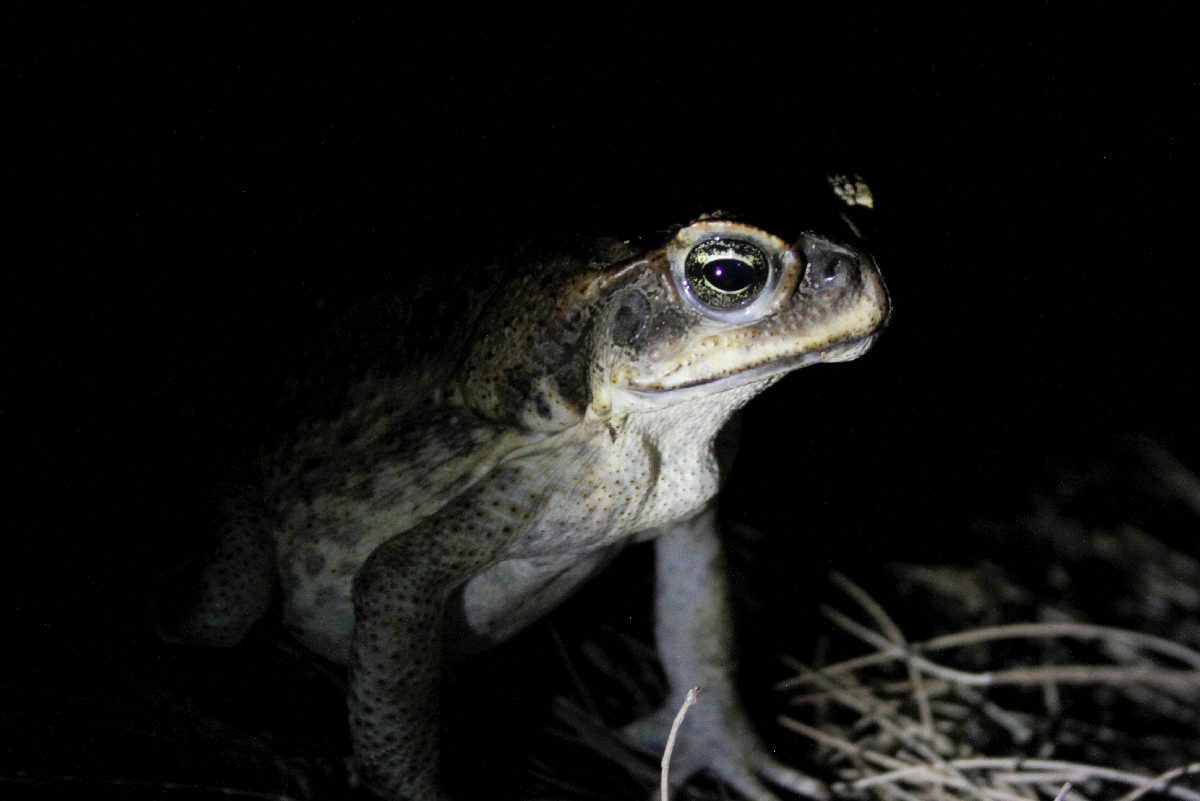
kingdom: Animalia
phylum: Chordata
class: Amphibia
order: Anura
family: Bufonidae
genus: Rhinella
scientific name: Rhinella marina
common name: Cane toad
